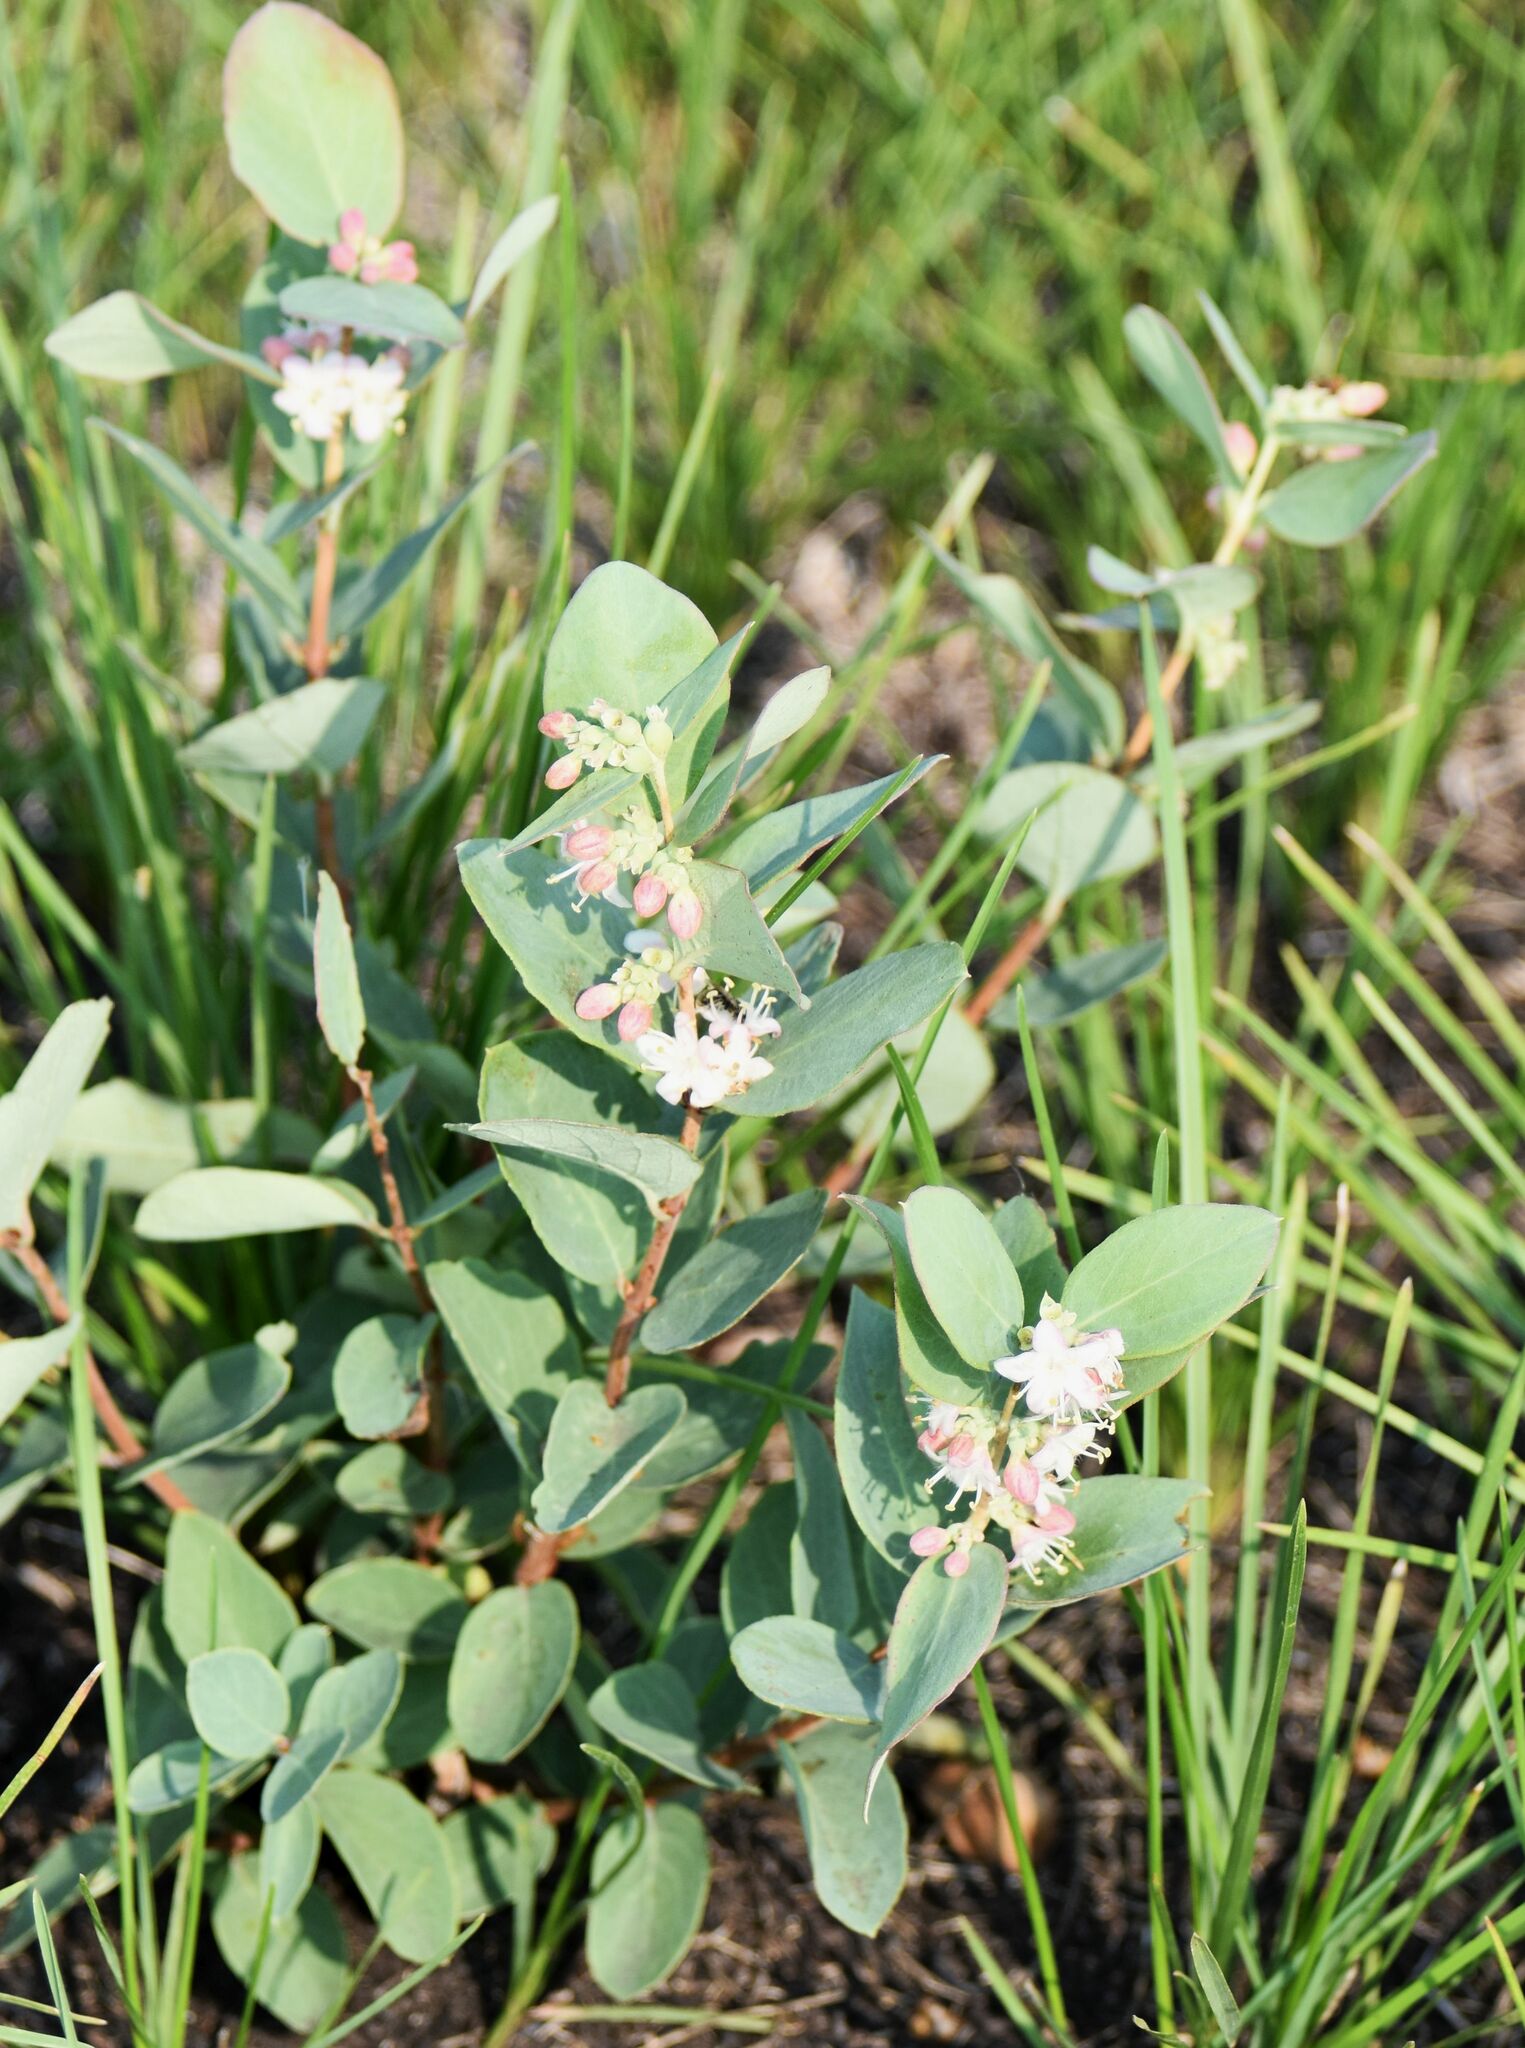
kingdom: Plantae
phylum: Tracheophyta
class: Magnoliopsida
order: Dipsacales
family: Caprifoliaceae
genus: Symphoricarpos
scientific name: Symphoricarpos occidentalis
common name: Wolfberry
